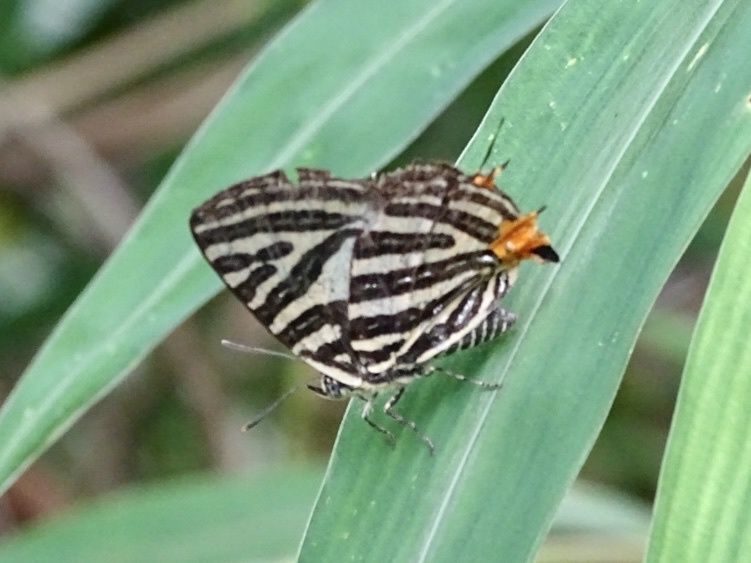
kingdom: Animalia
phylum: Arthropoda
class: Insecta
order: Lepidoptera
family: Lycaenidae
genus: Cigaritis
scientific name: Cigaritis lohita
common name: Long-banded silverline
